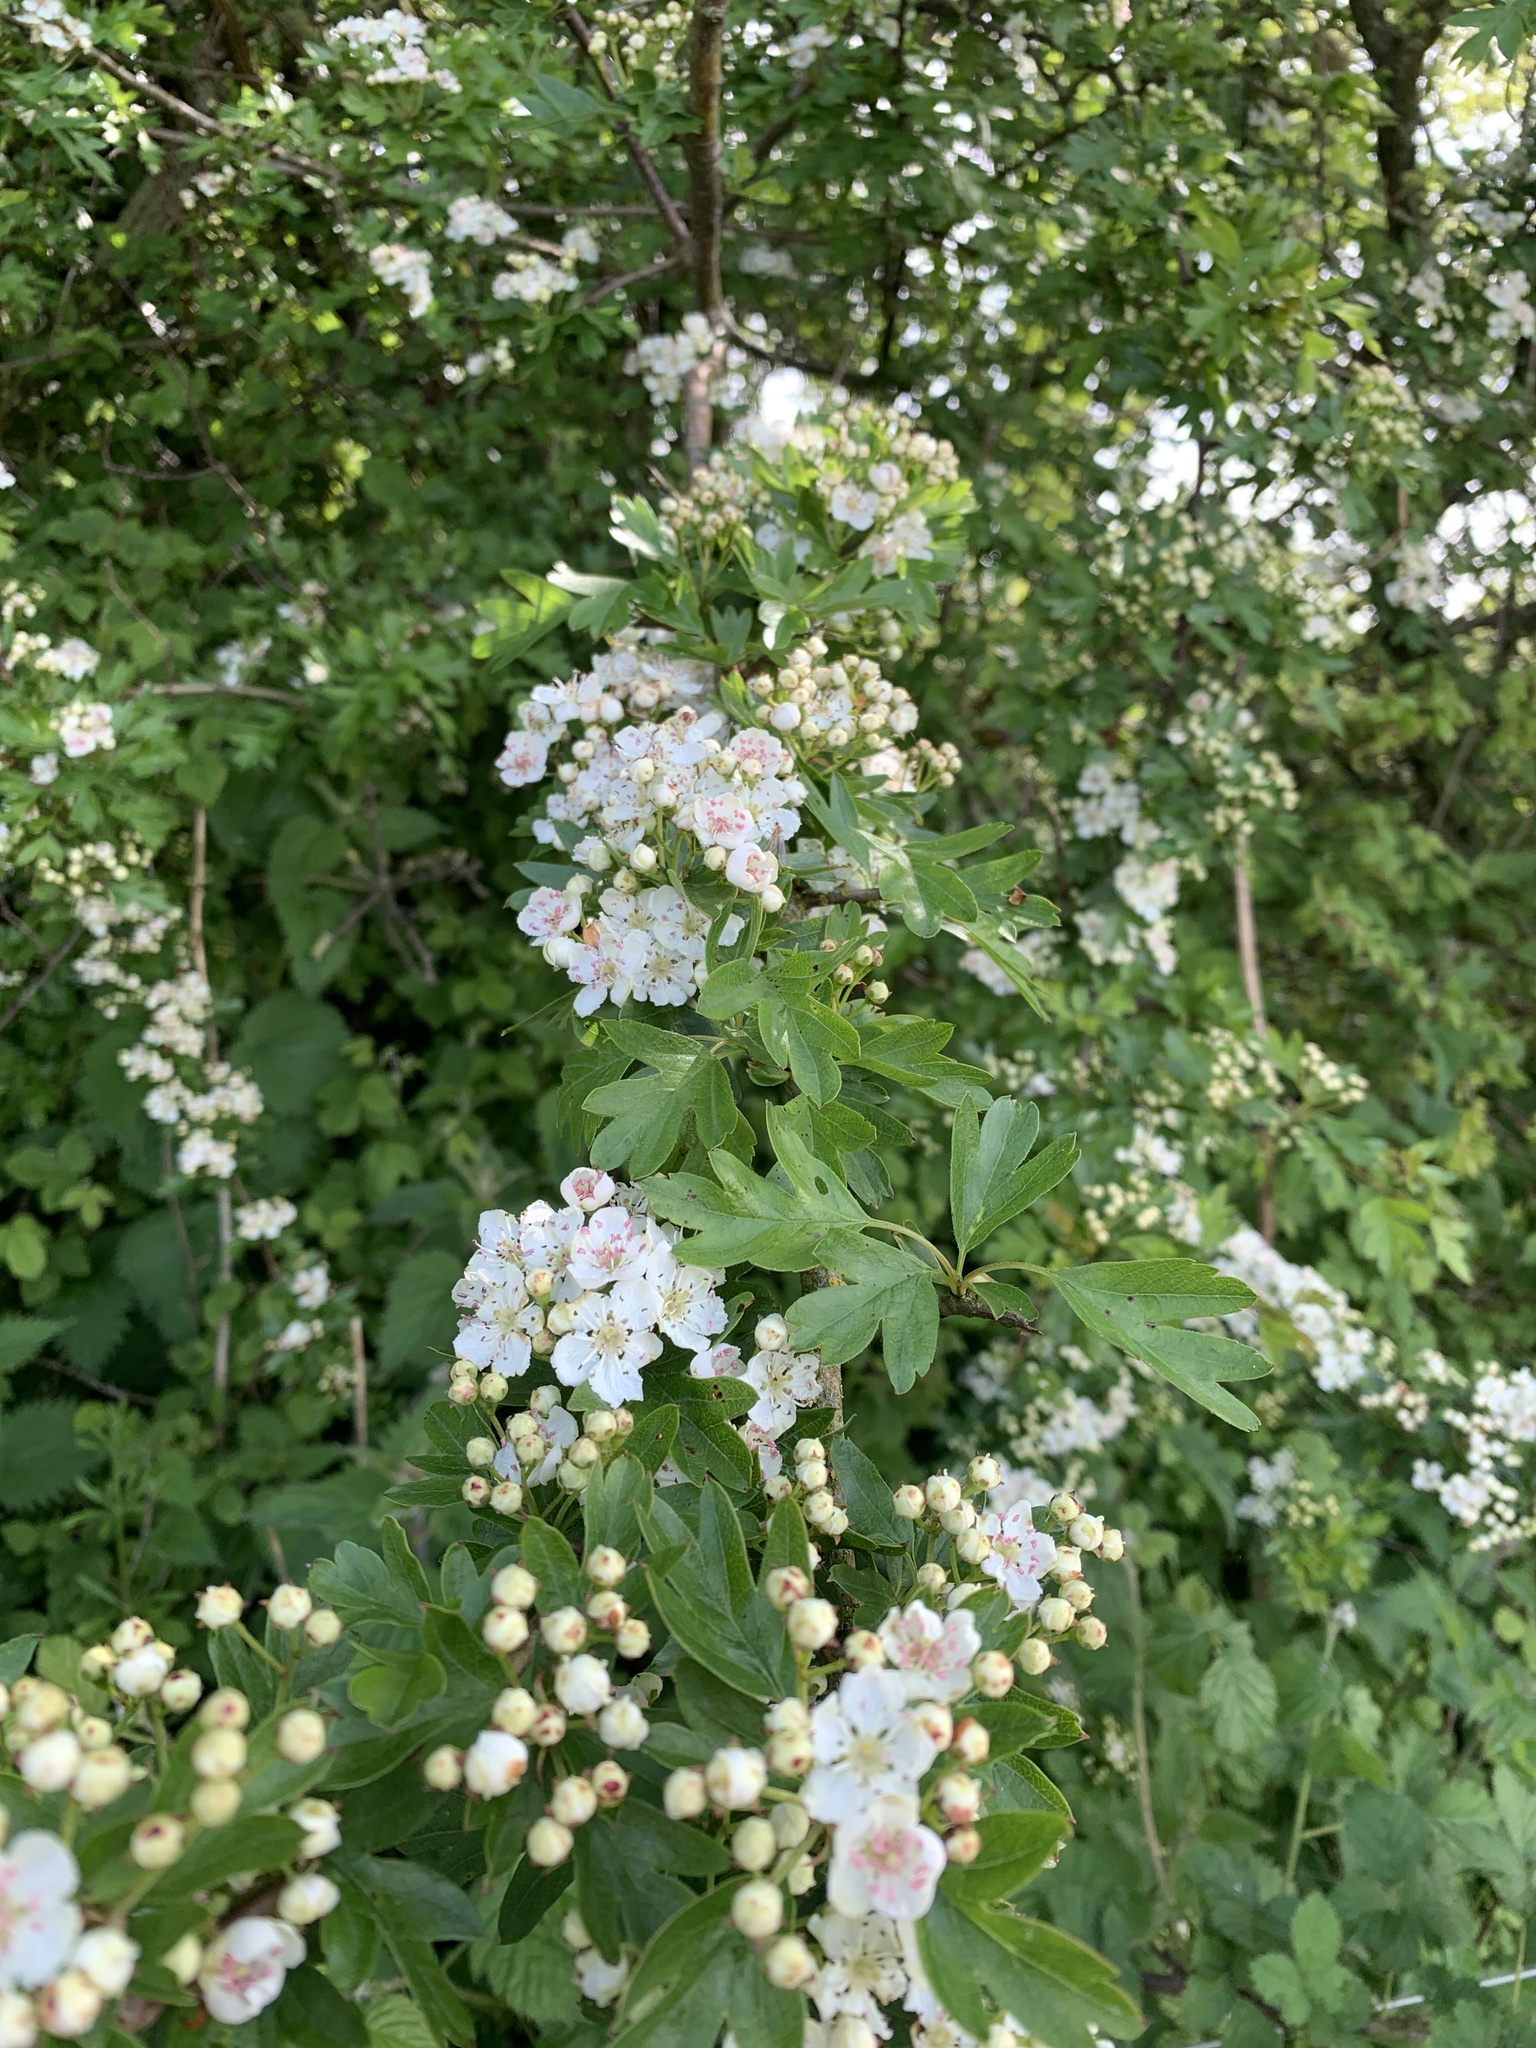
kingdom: Plantae
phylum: Tracheophyta
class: Magnoliopsida
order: Rosales
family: Rosaceae
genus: Crataegus
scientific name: Crataegus monogyna
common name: Hawthorn
